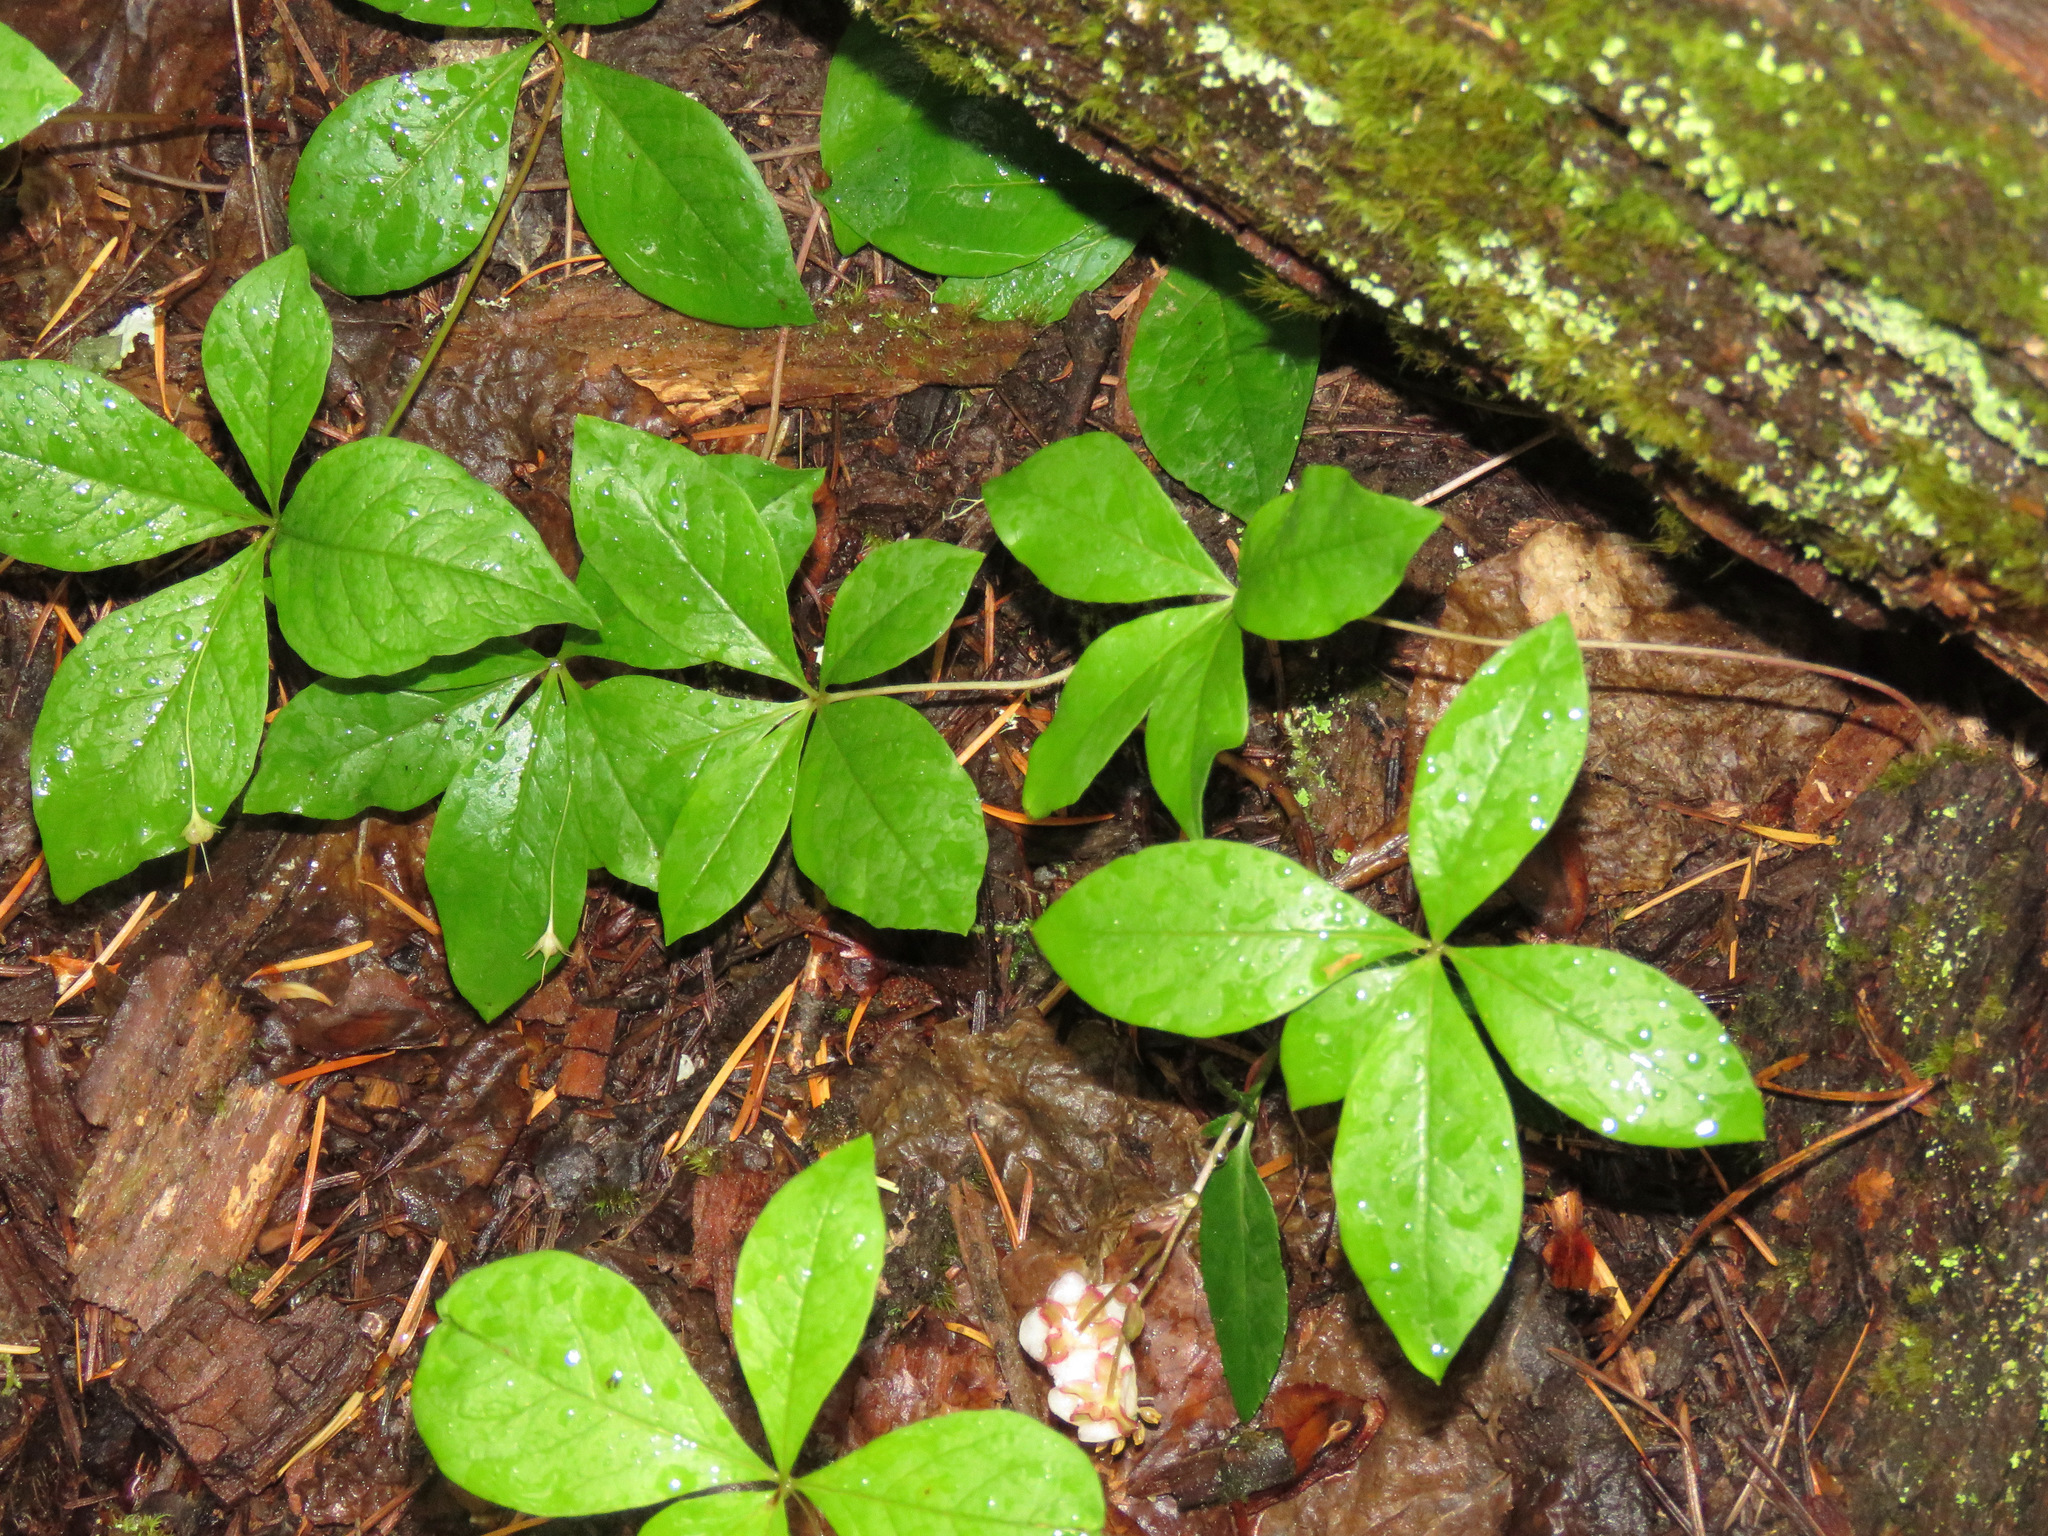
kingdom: Plantae
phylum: Tracheophyta
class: Magnoliopsida
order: Ericales
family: Primulaceae
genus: Lysimachia
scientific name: Lysimachia latifolia
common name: Pacific starflower
